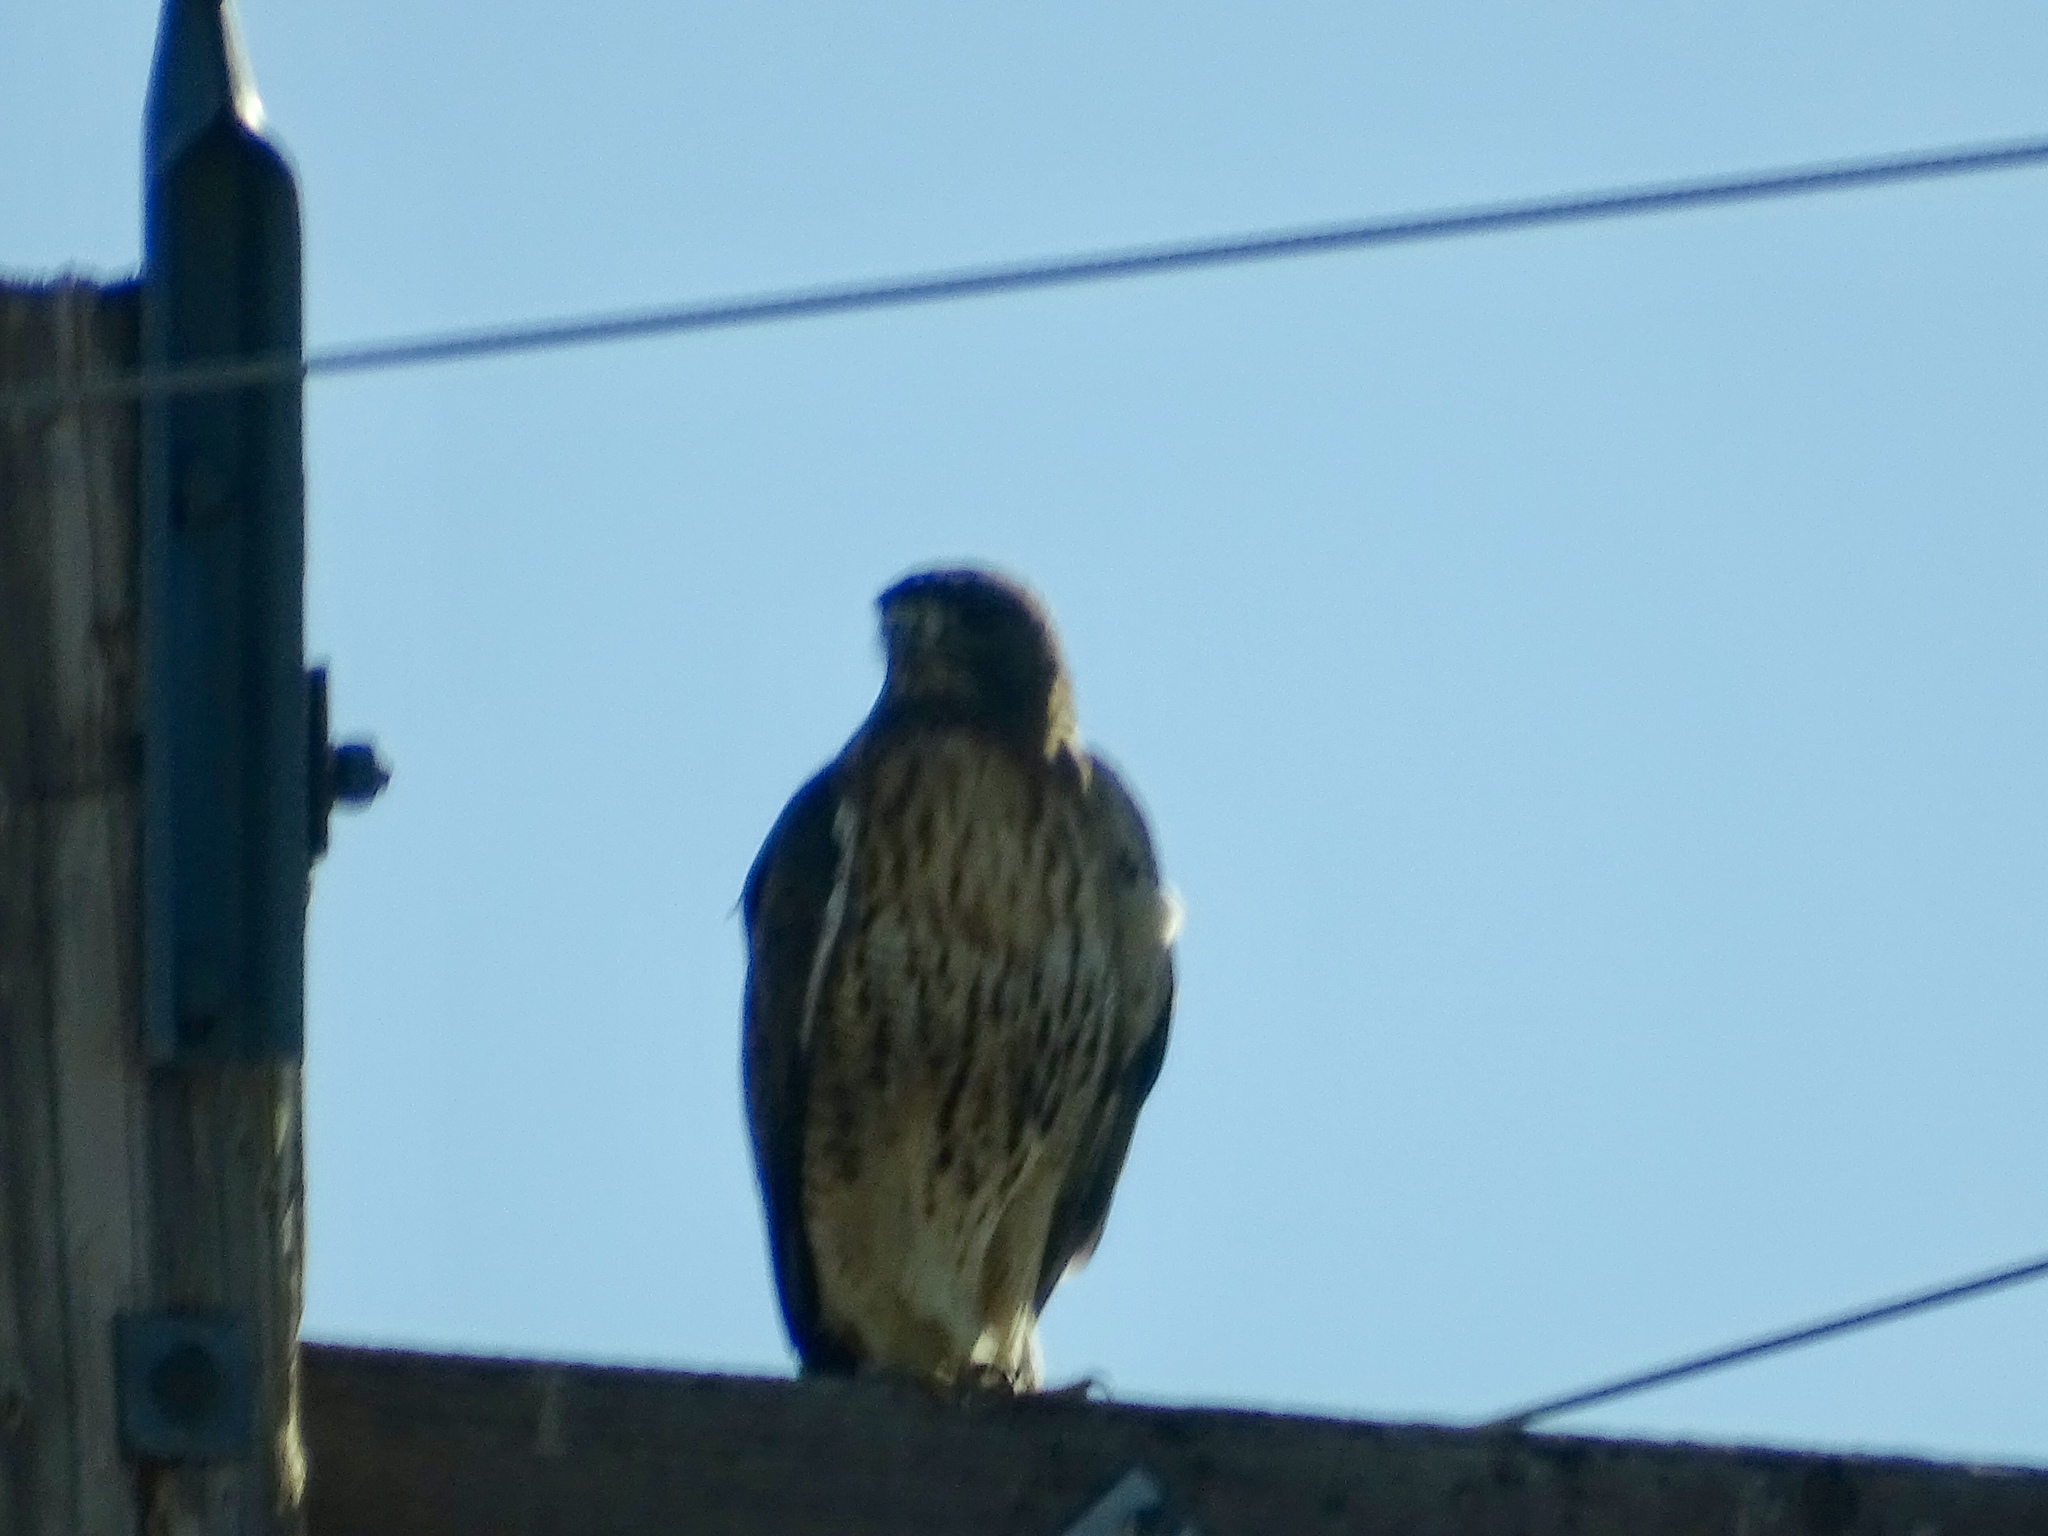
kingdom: Animalia
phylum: Chordata
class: Aves
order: Accipitriformes
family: Accipitridae
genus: Buteo
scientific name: Buteo jamaicensis
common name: Red-tailed hawk
